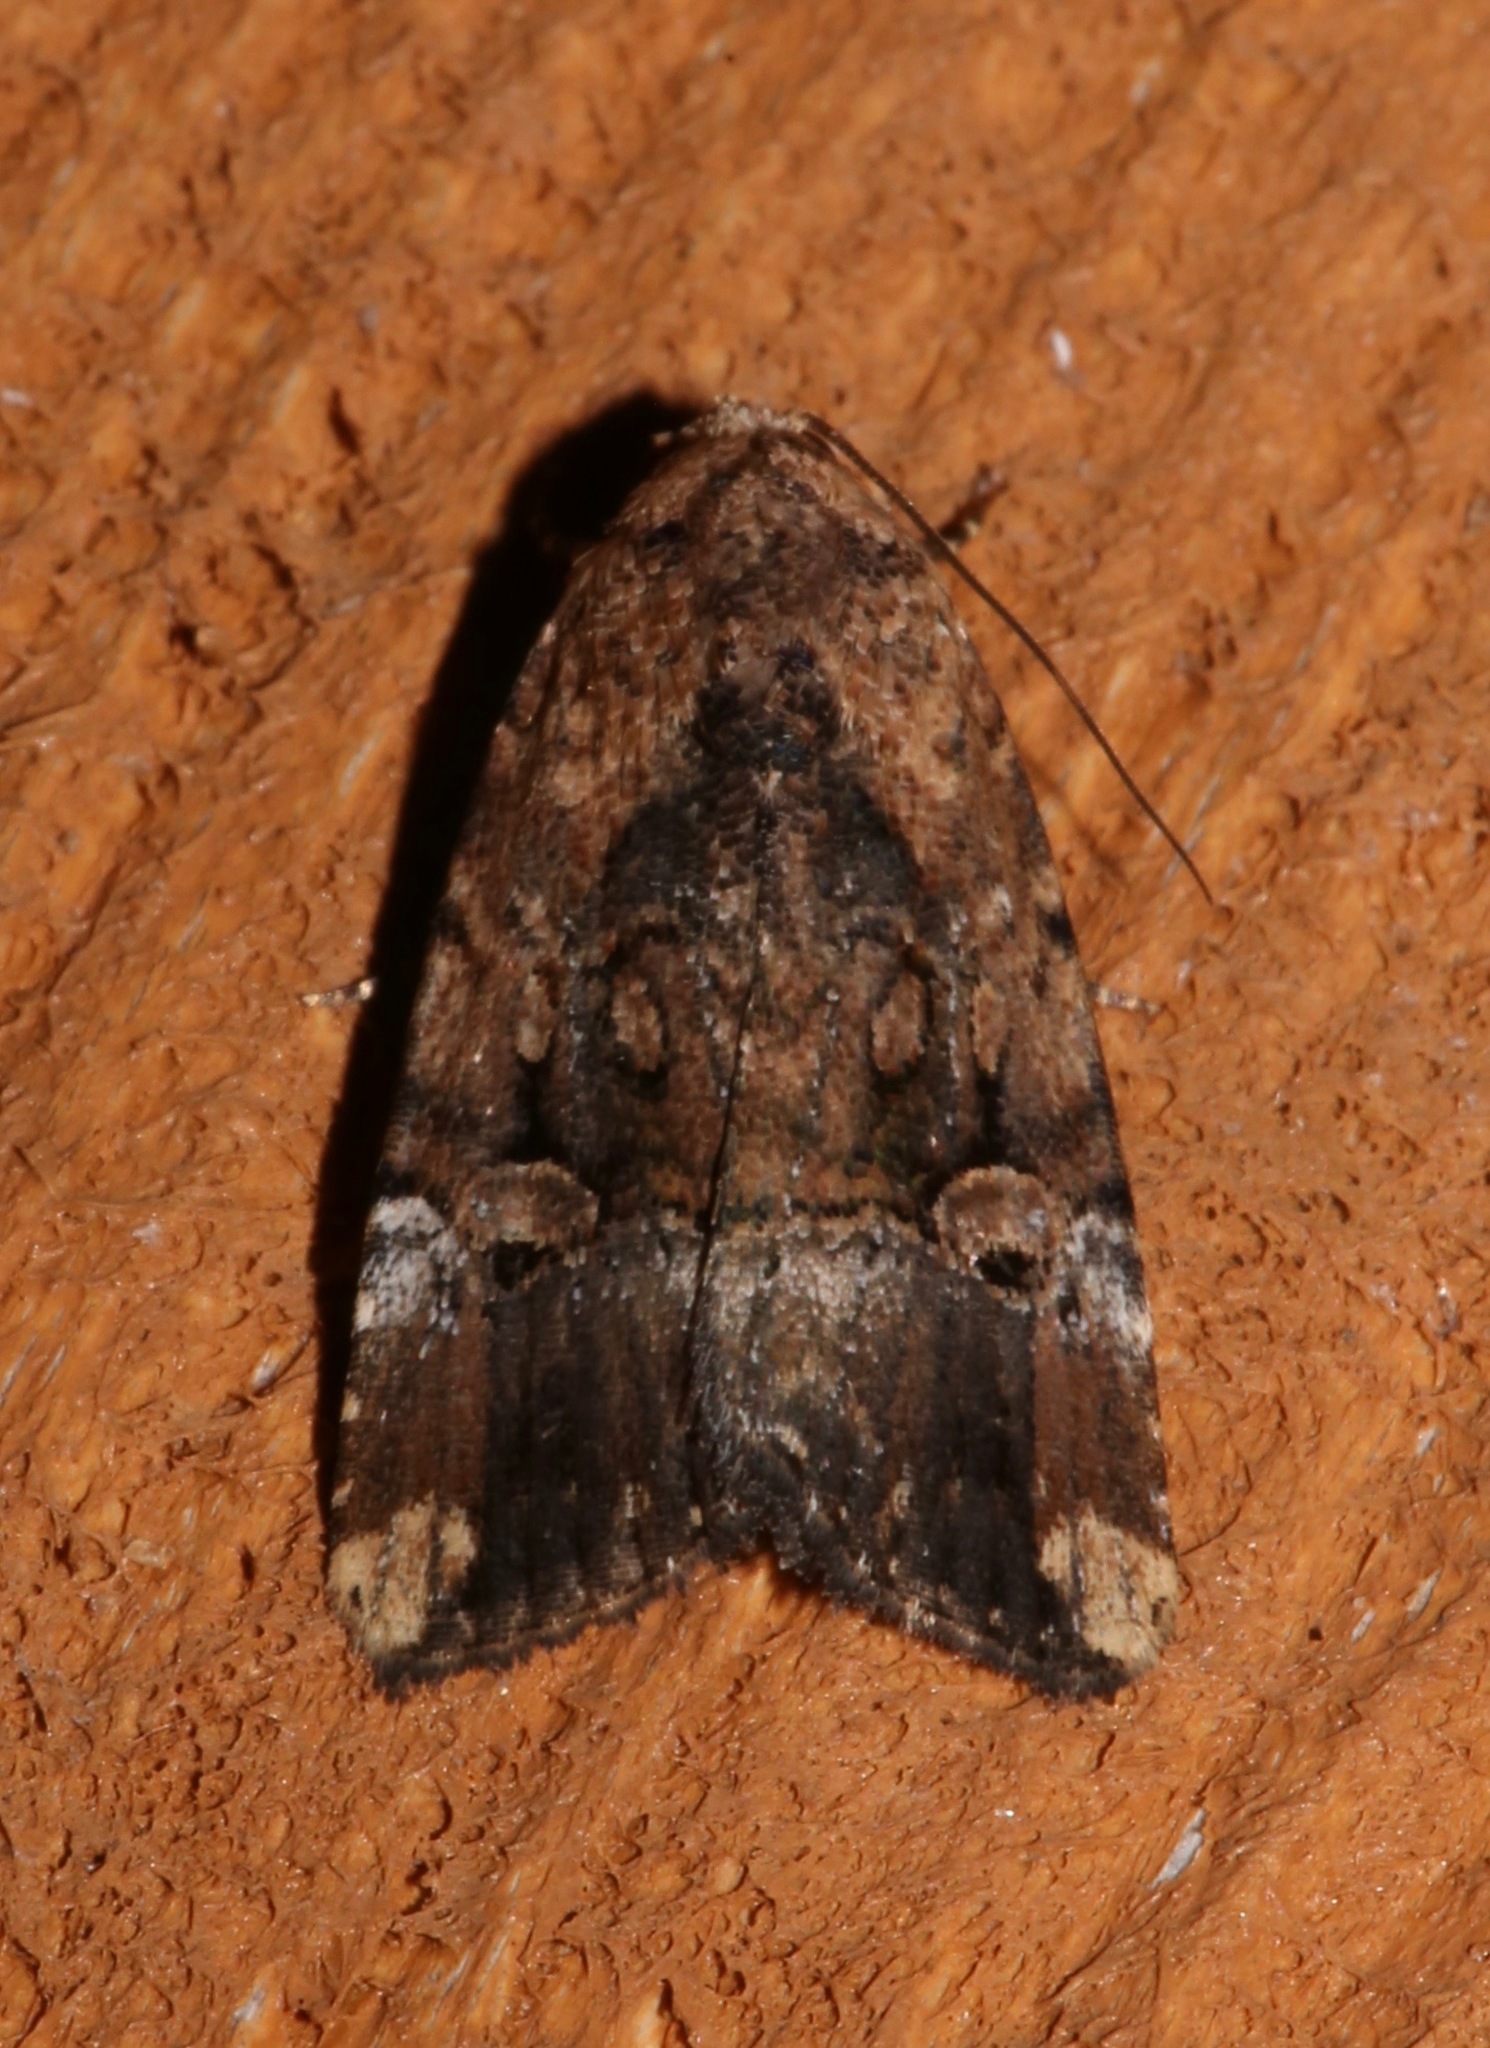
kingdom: Animalia
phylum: Arthropoda
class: Insecta
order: Lepidoptera
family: Noctuidae
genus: Elaphria
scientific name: Elaphria exesa
